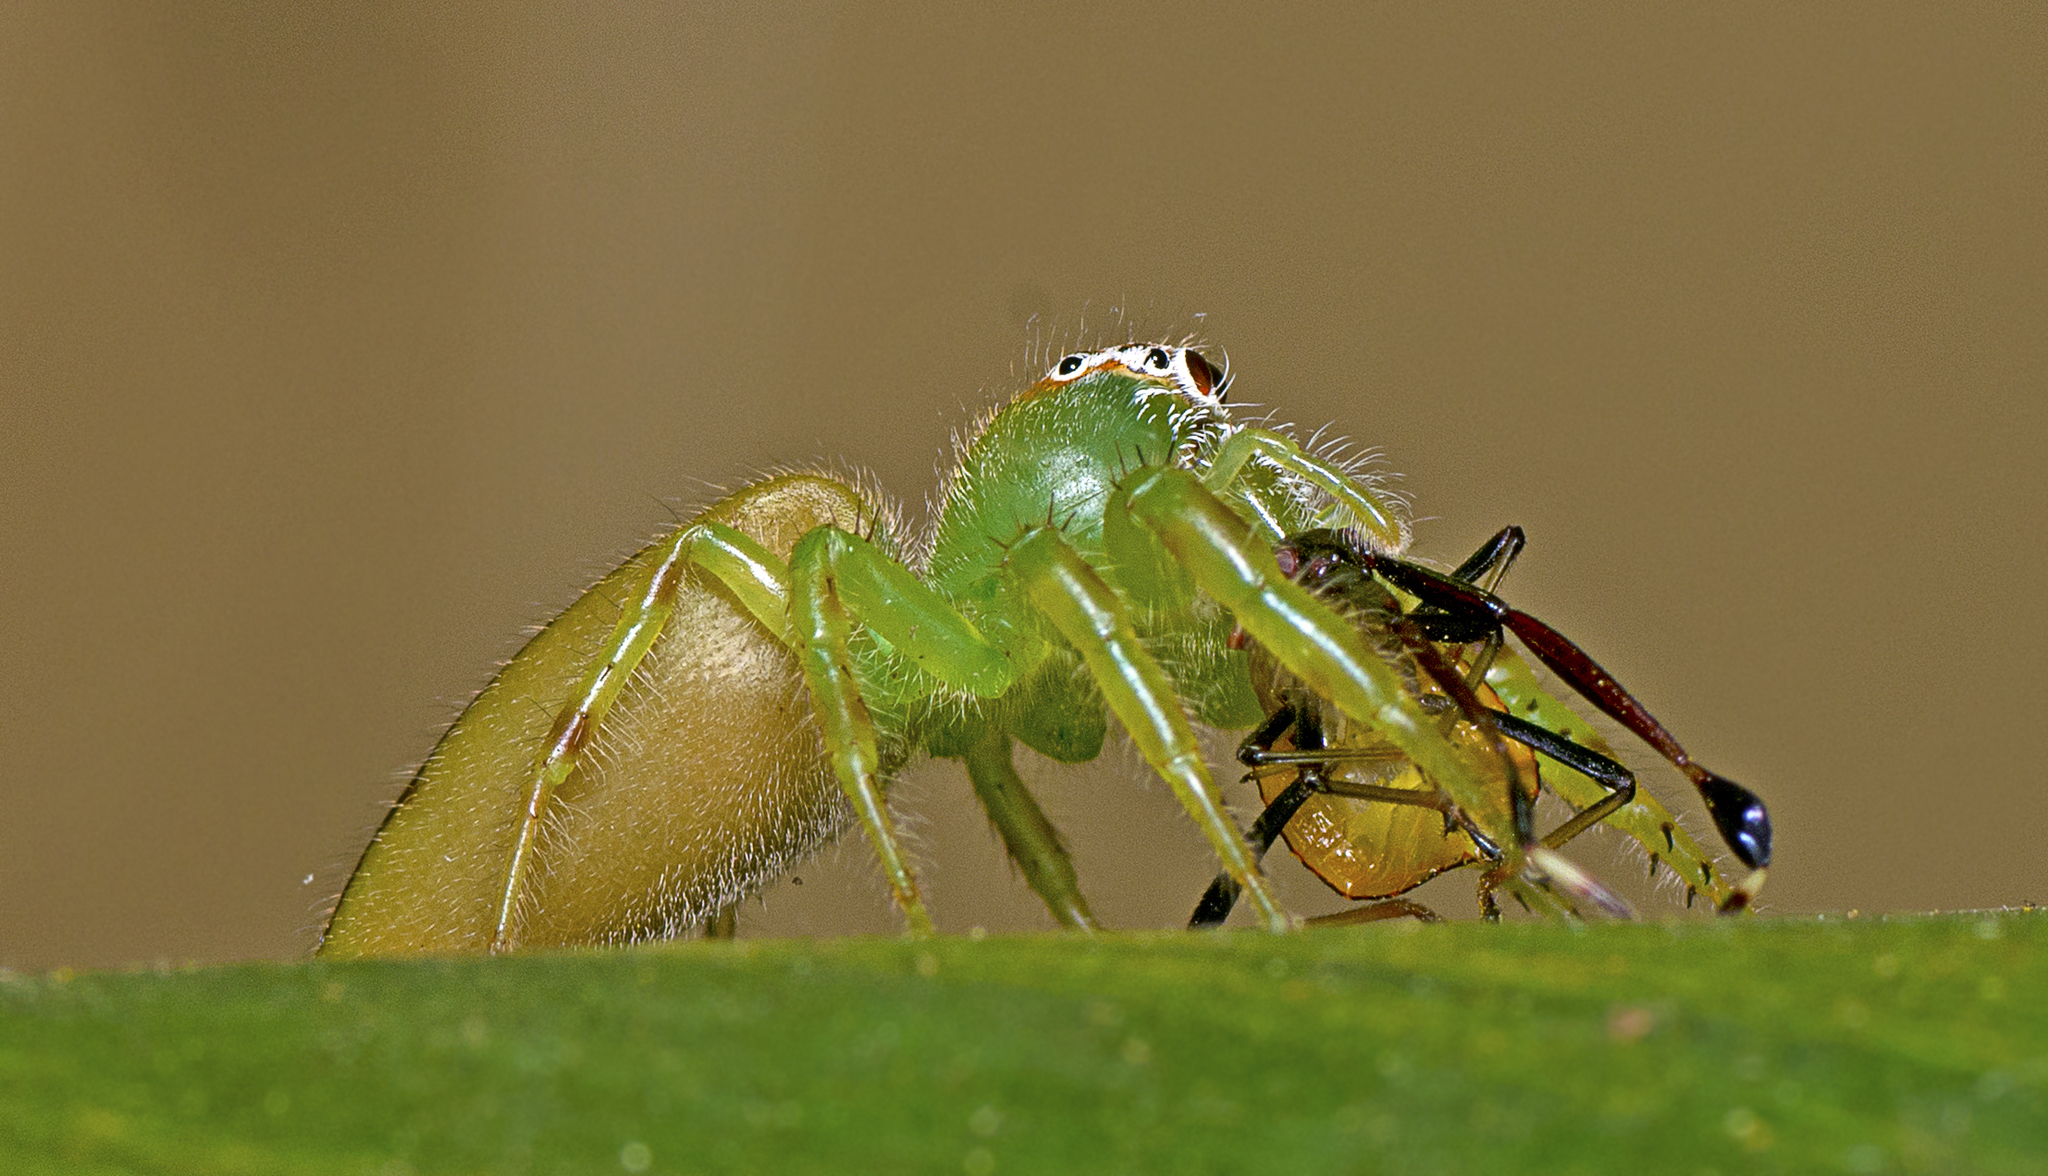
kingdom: Animalia
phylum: Arthropoda
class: Arachnida
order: Araneae
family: Salticidae
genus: Mopsus
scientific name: Mopsus mormon
